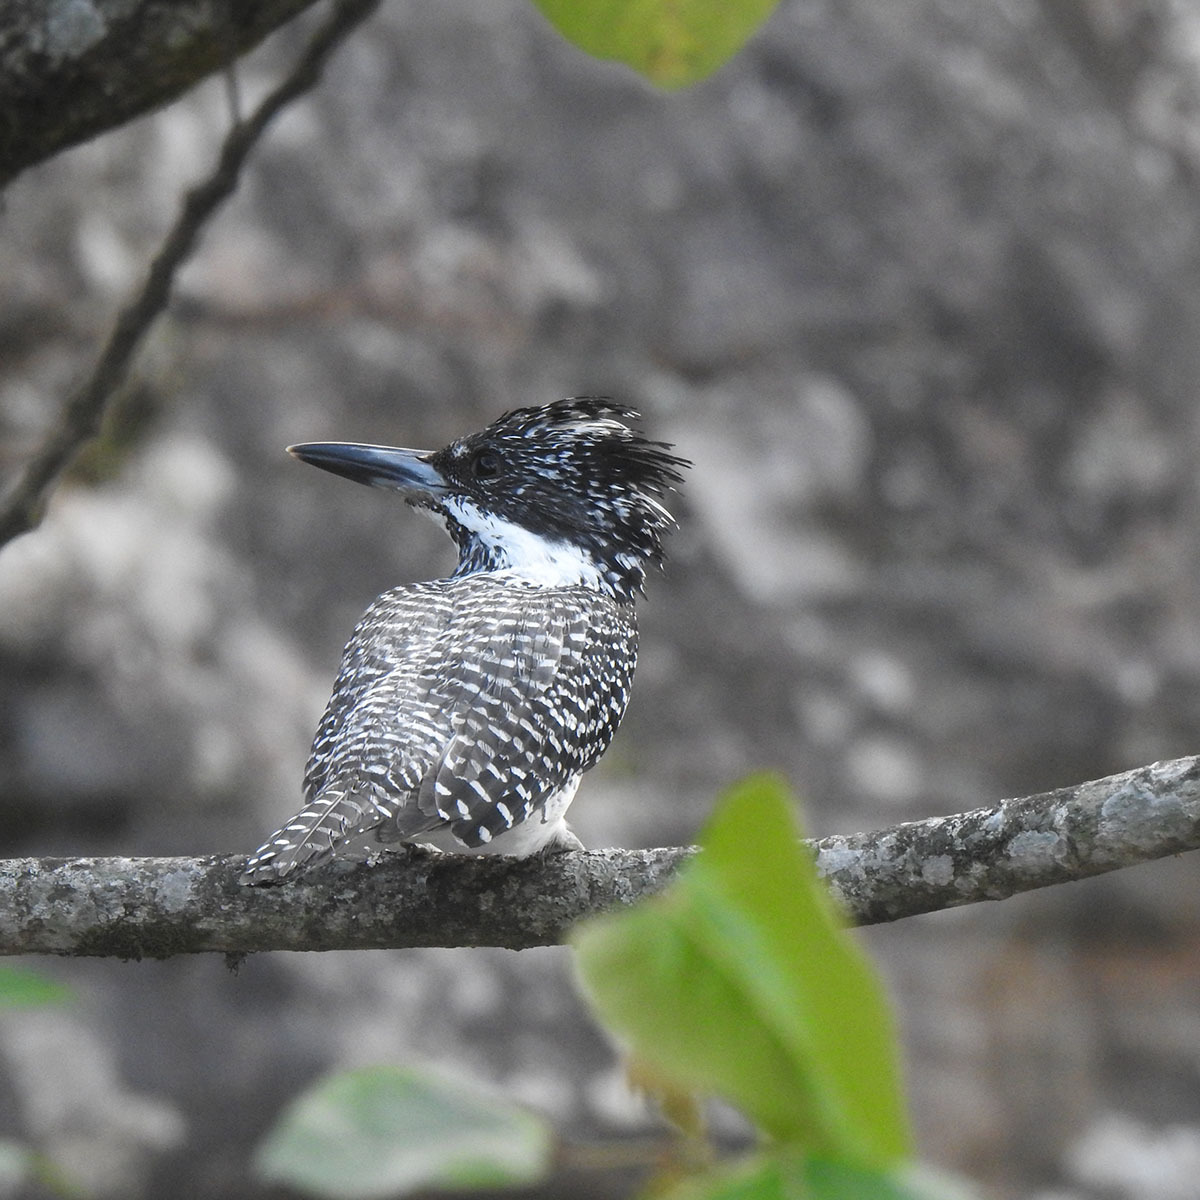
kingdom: Animalia
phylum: Chordata
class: Aves
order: Coraciiformes
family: Alcedinidae
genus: Megaceryle
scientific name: Megaceryle lugubris
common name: Crested kingfisher
